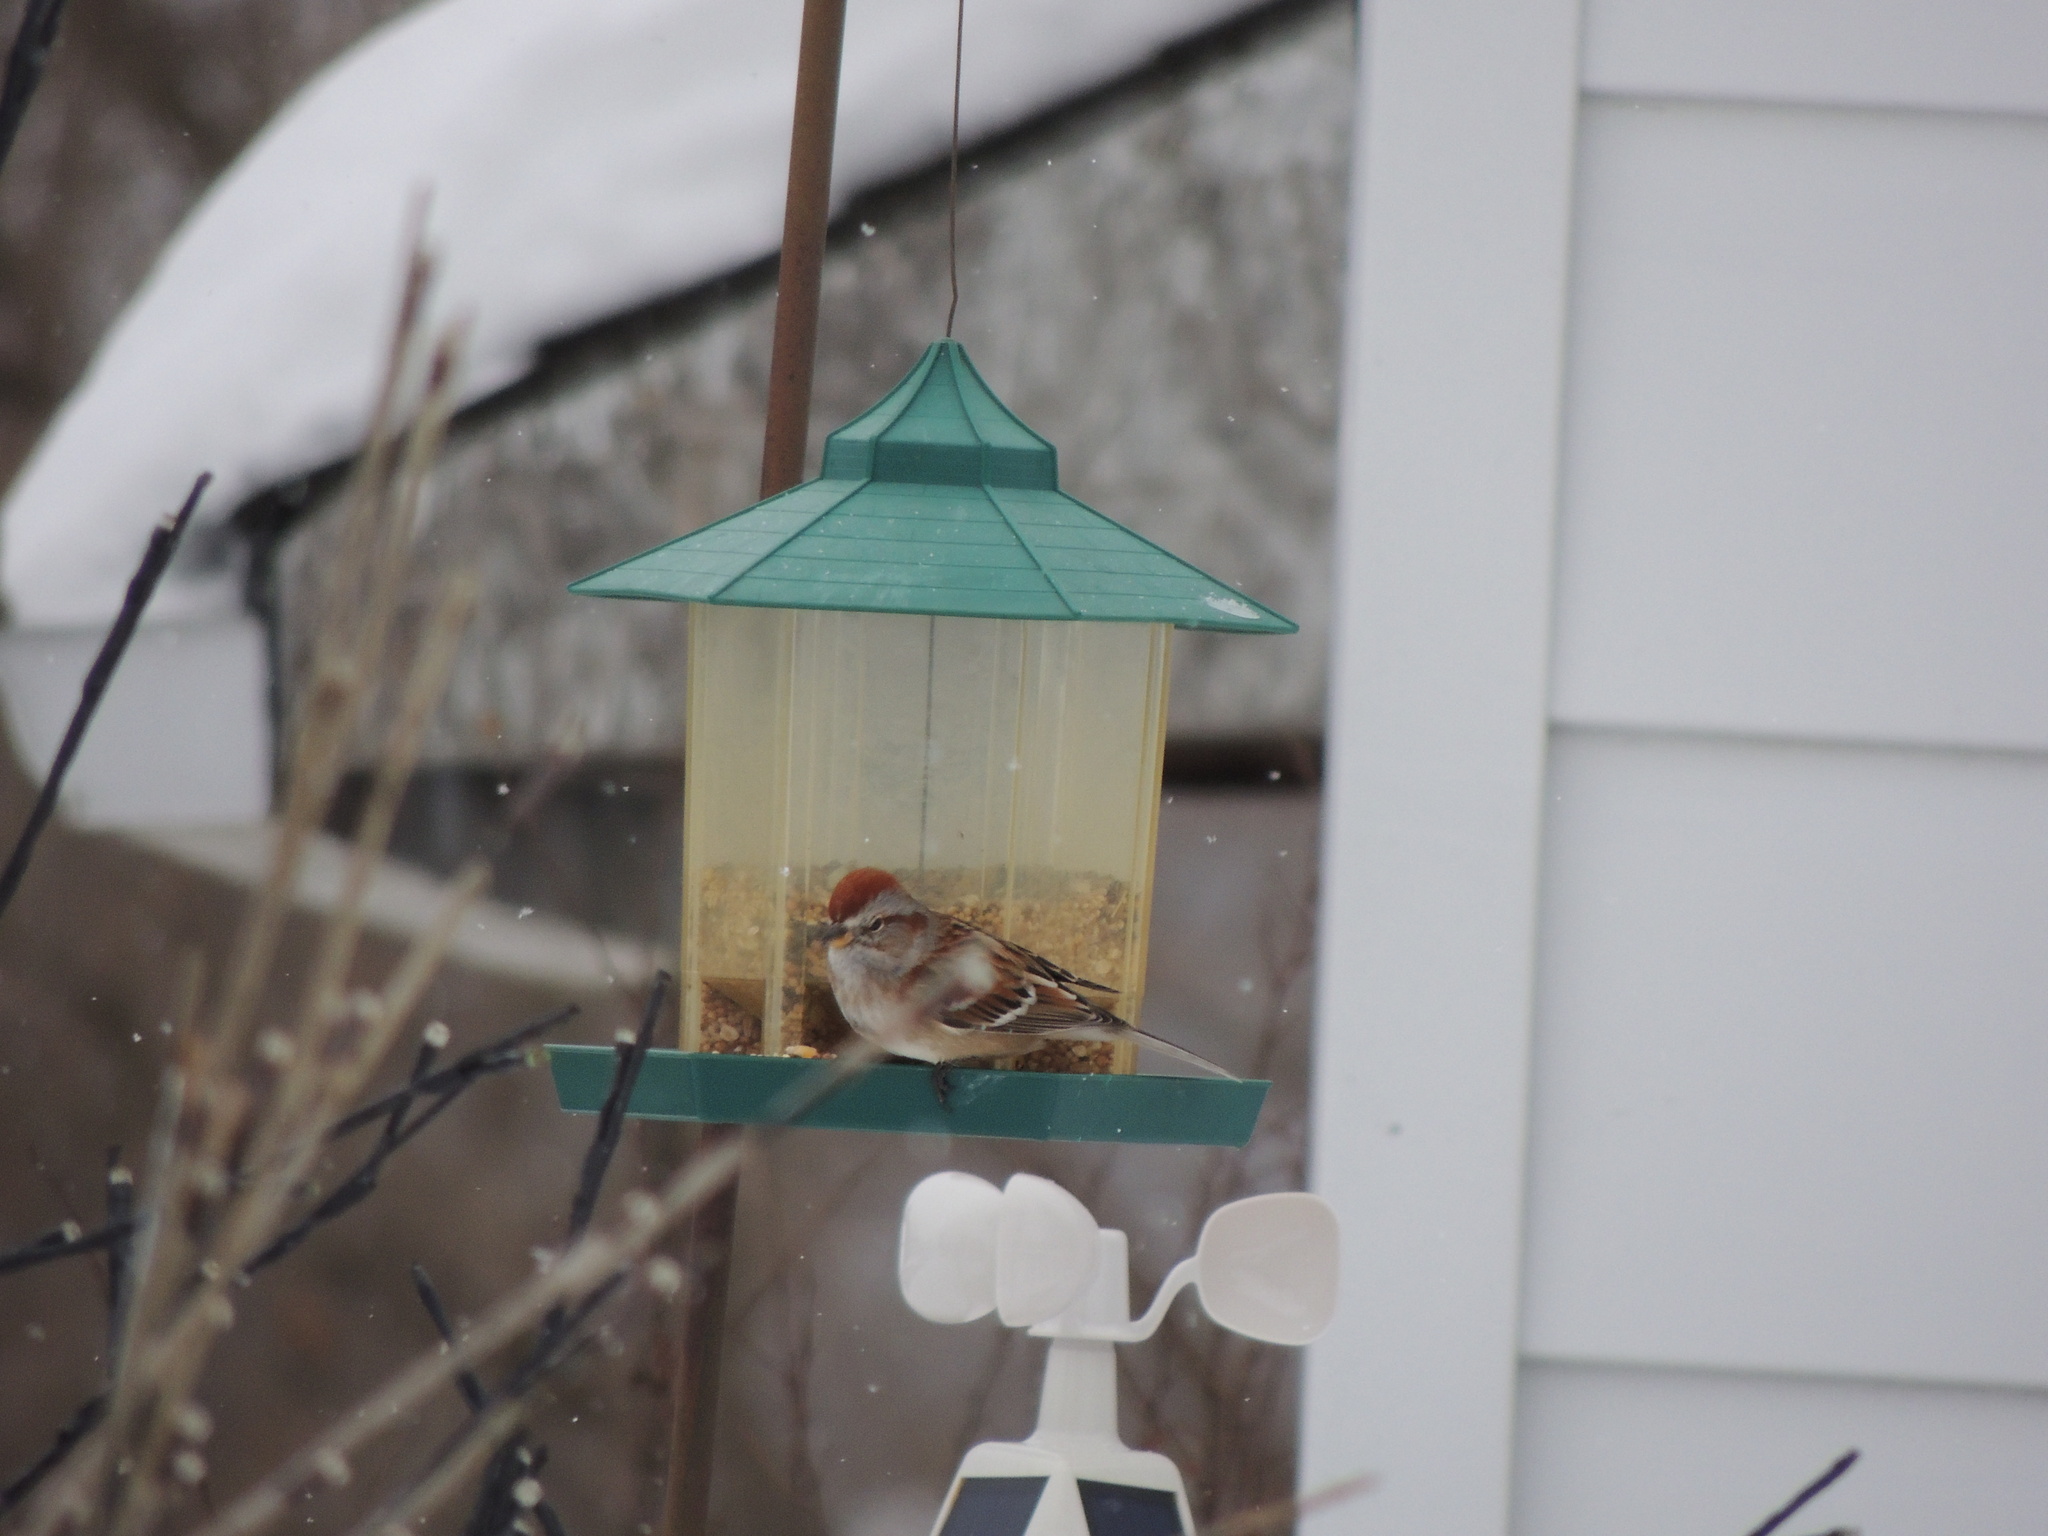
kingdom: Animalia
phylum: Chordata
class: Aves
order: Passeriformes
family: Passerellidae
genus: Spizelloides
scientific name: Spizelloides arborea
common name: American tree sparrow
